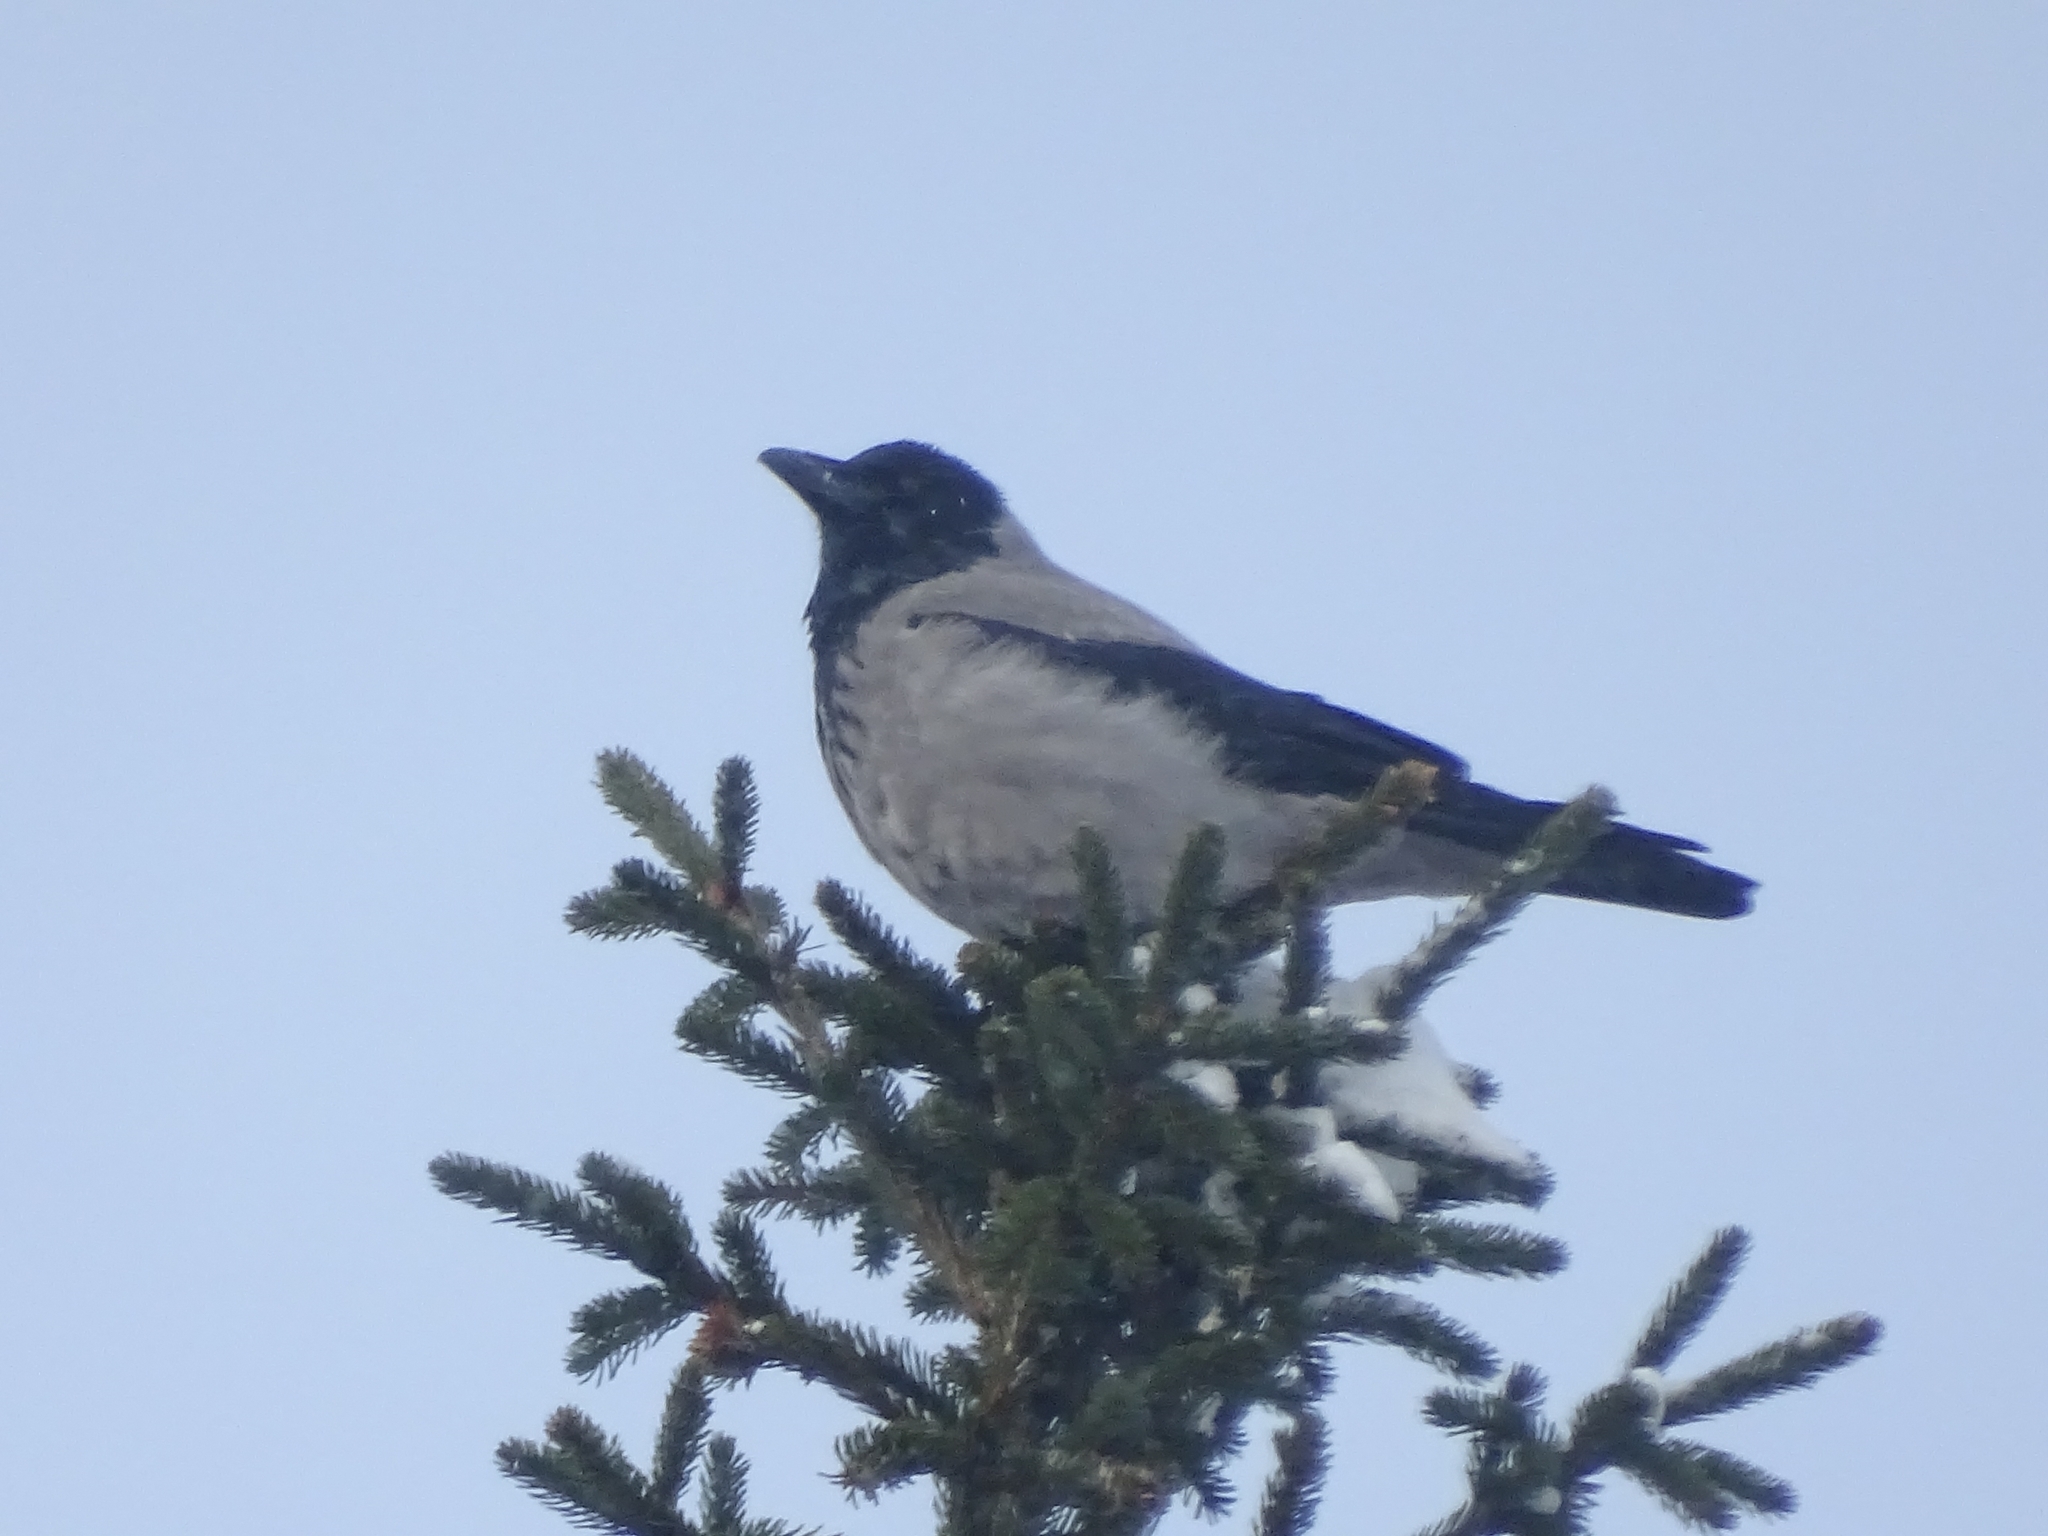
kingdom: Animalia
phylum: Chordata
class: Aves
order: Passeriformes
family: Corvidae
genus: Corvus
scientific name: Corvus cornix
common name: Hooded crow
